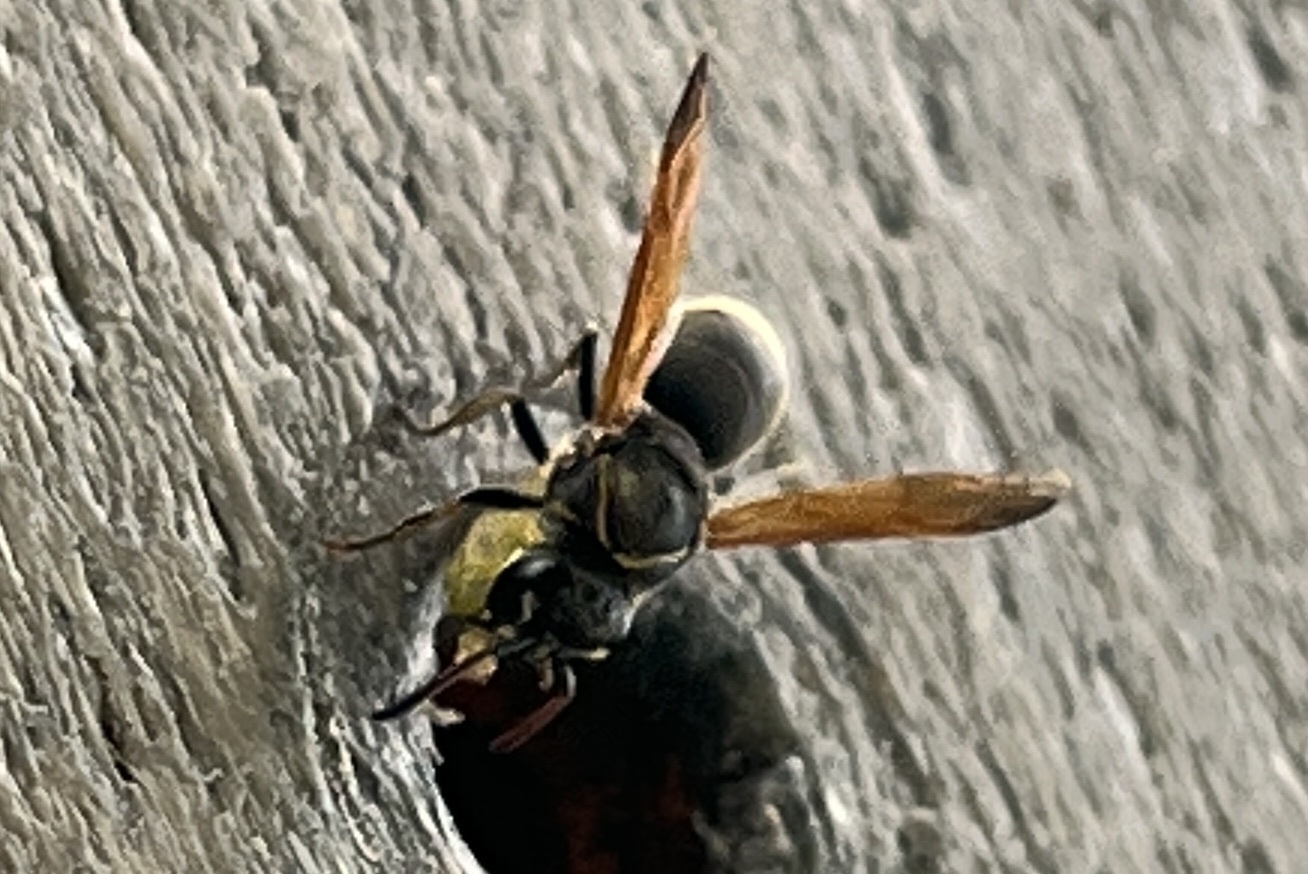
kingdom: Animalia
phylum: Arthropoda
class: Insecta
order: Hymenoptera
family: Eumenidae
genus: Pachodynerus
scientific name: Pachodynerus nasidens
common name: Key hole wasp
